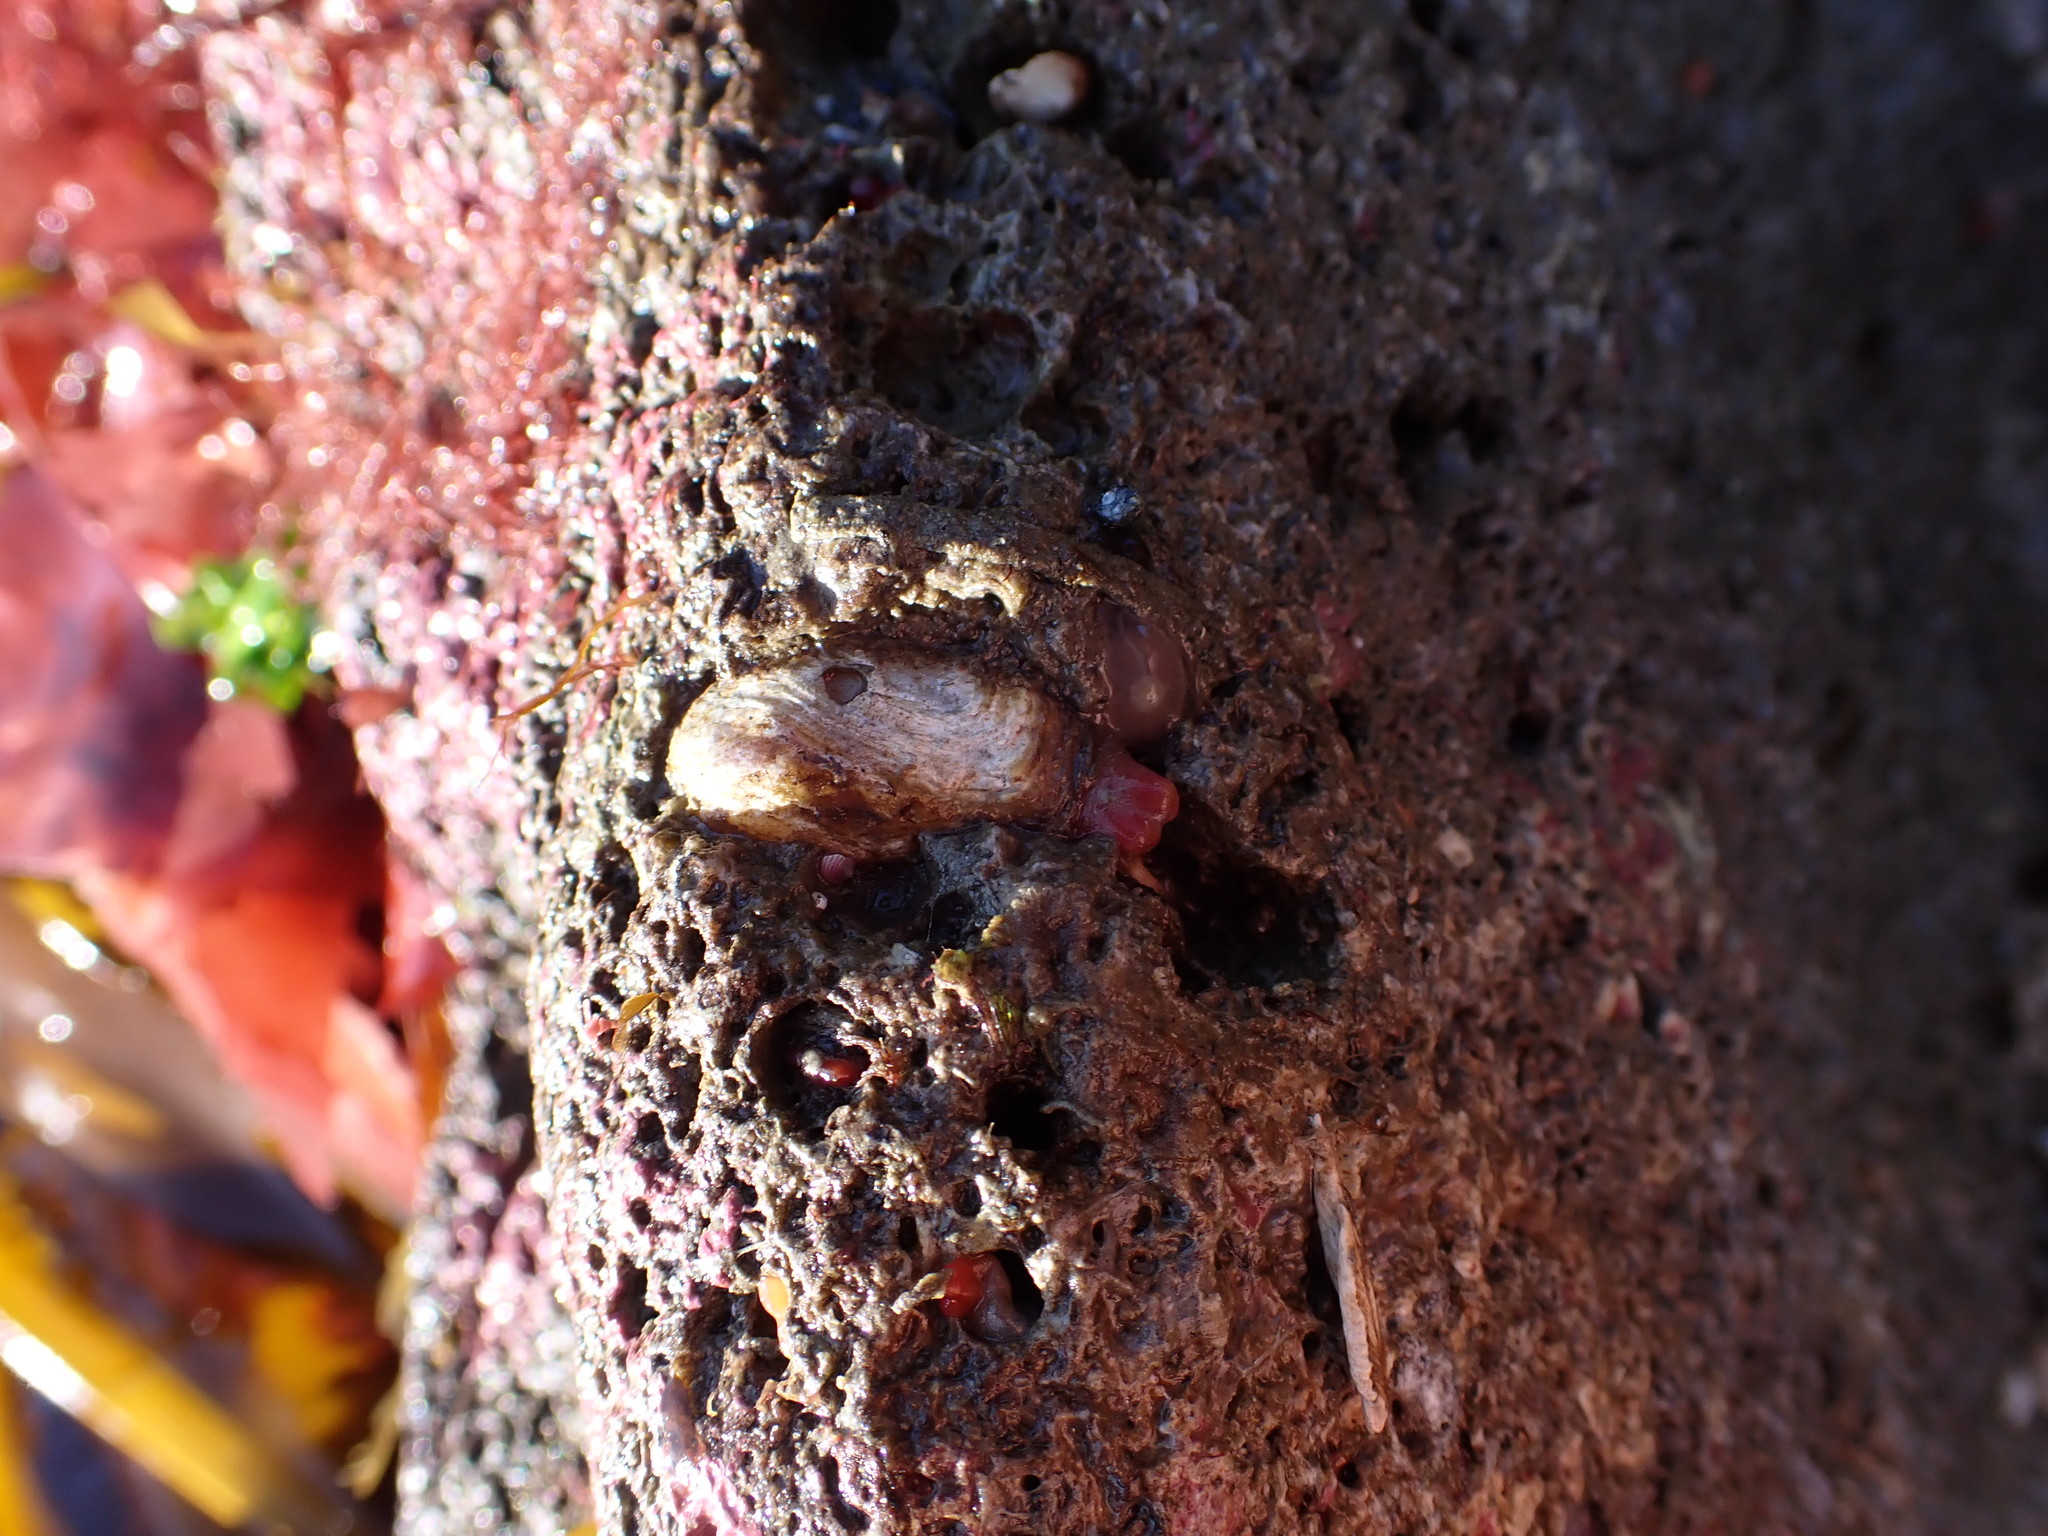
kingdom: Animalia
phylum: Mollusca
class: Bivalvia
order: Adapedonta
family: Hiatellidae
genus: Hiatella
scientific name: Hiatella arctica
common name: Arctic hiatella
